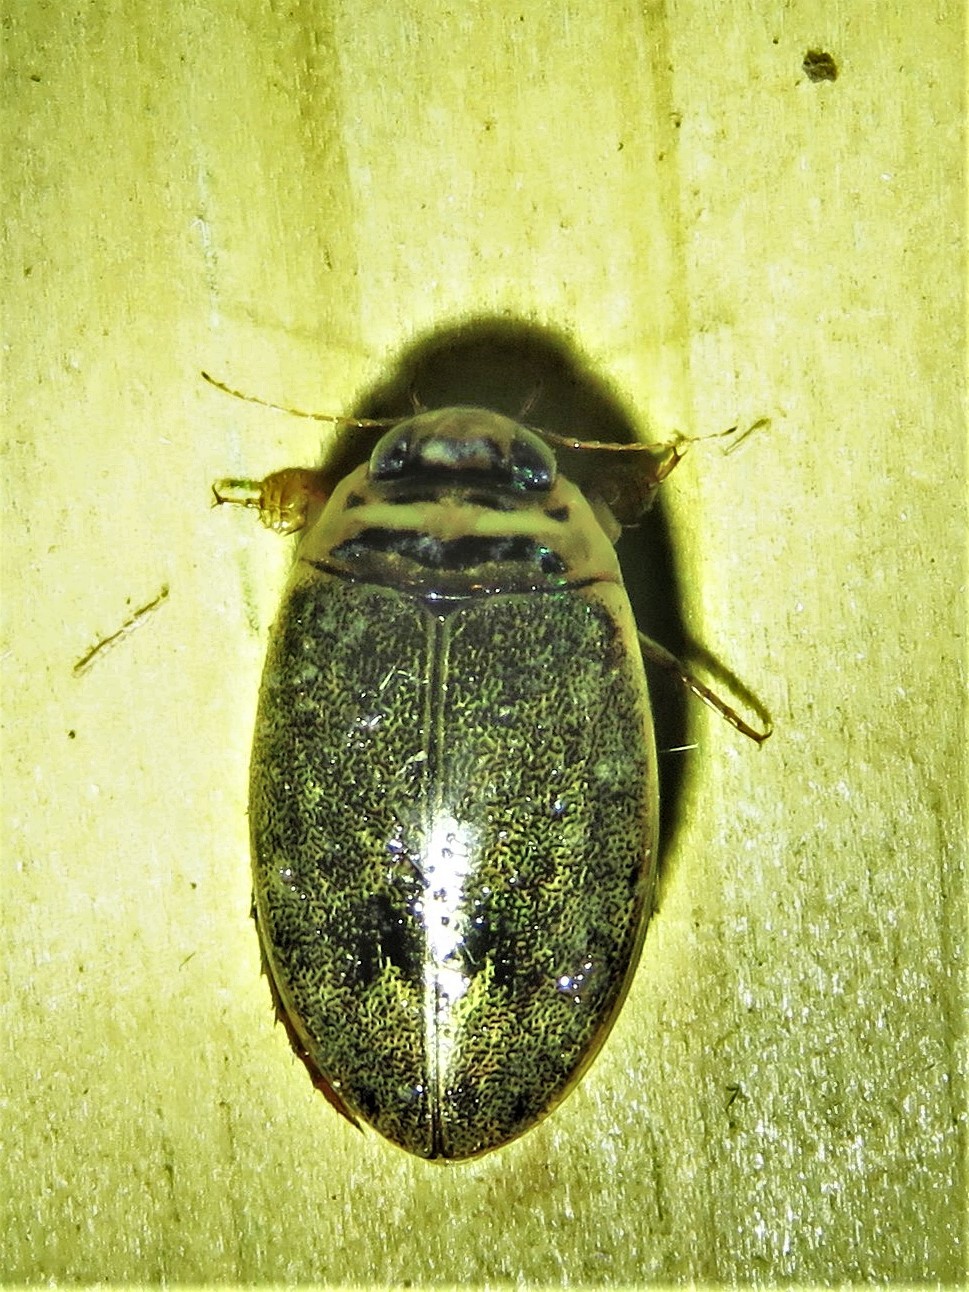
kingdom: Animalia
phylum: Arthropoda
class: Insecta
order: Coleoptera
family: Dytiscidae
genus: Thermonectus
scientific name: Thermonectus nigrofasciatus
